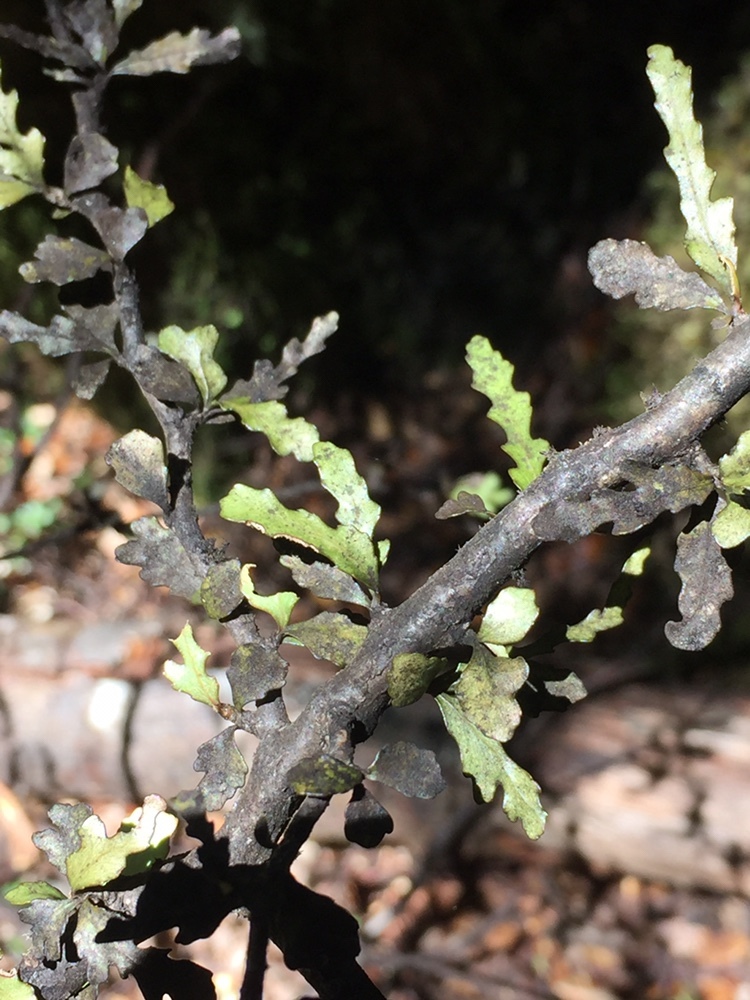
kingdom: Plantae
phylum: Tracheophyta
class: Magnoliopsida
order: Oxalidales
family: Elaeocarpaceae
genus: Elaeocarpus
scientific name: Elaeocarpus hookerianus
